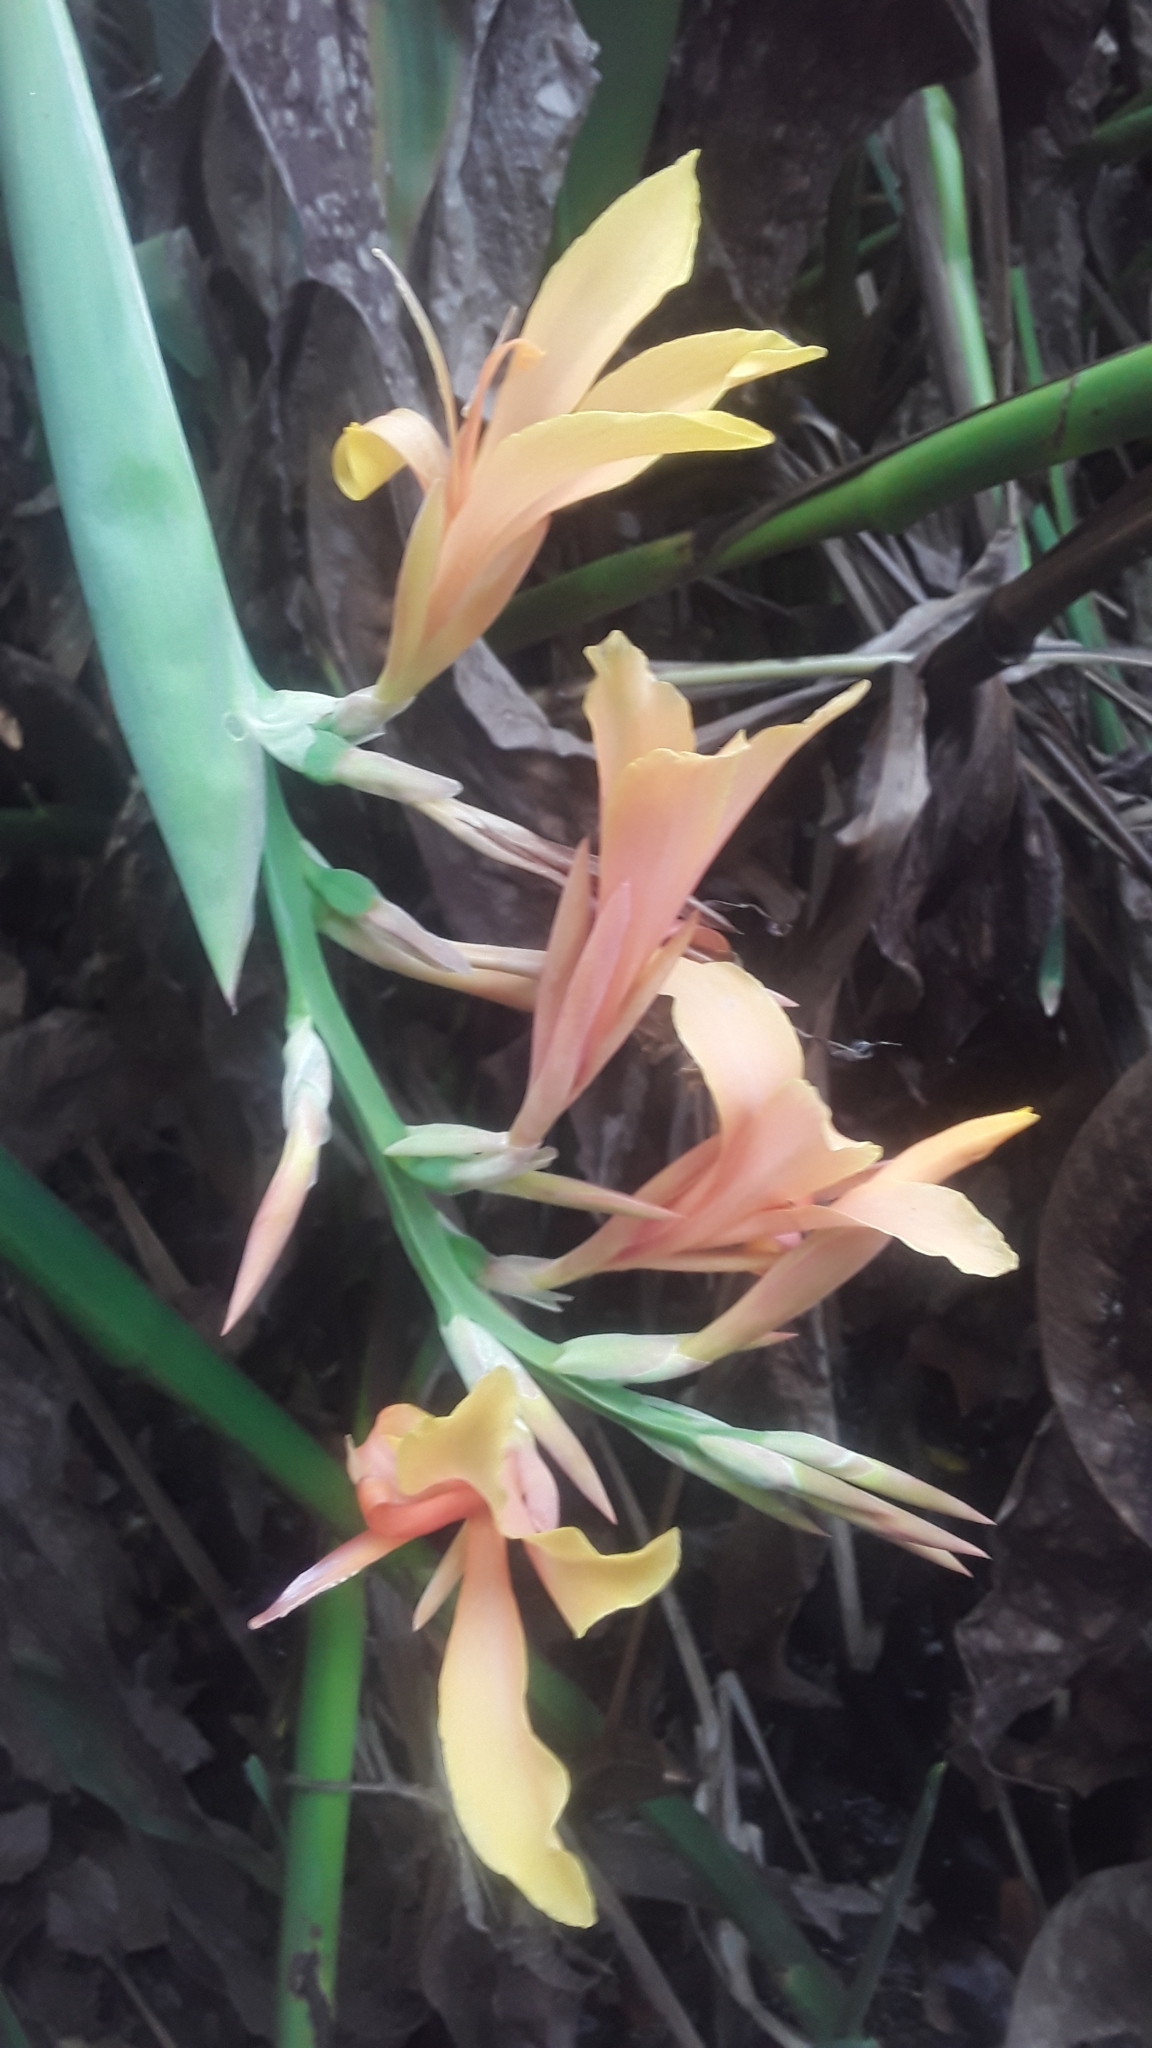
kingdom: Plantae
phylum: Tracheophyta
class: Liliopsida
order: Zingiberales
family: Cannaceae
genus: Canna
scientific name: Canna indica
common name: Indian shot
